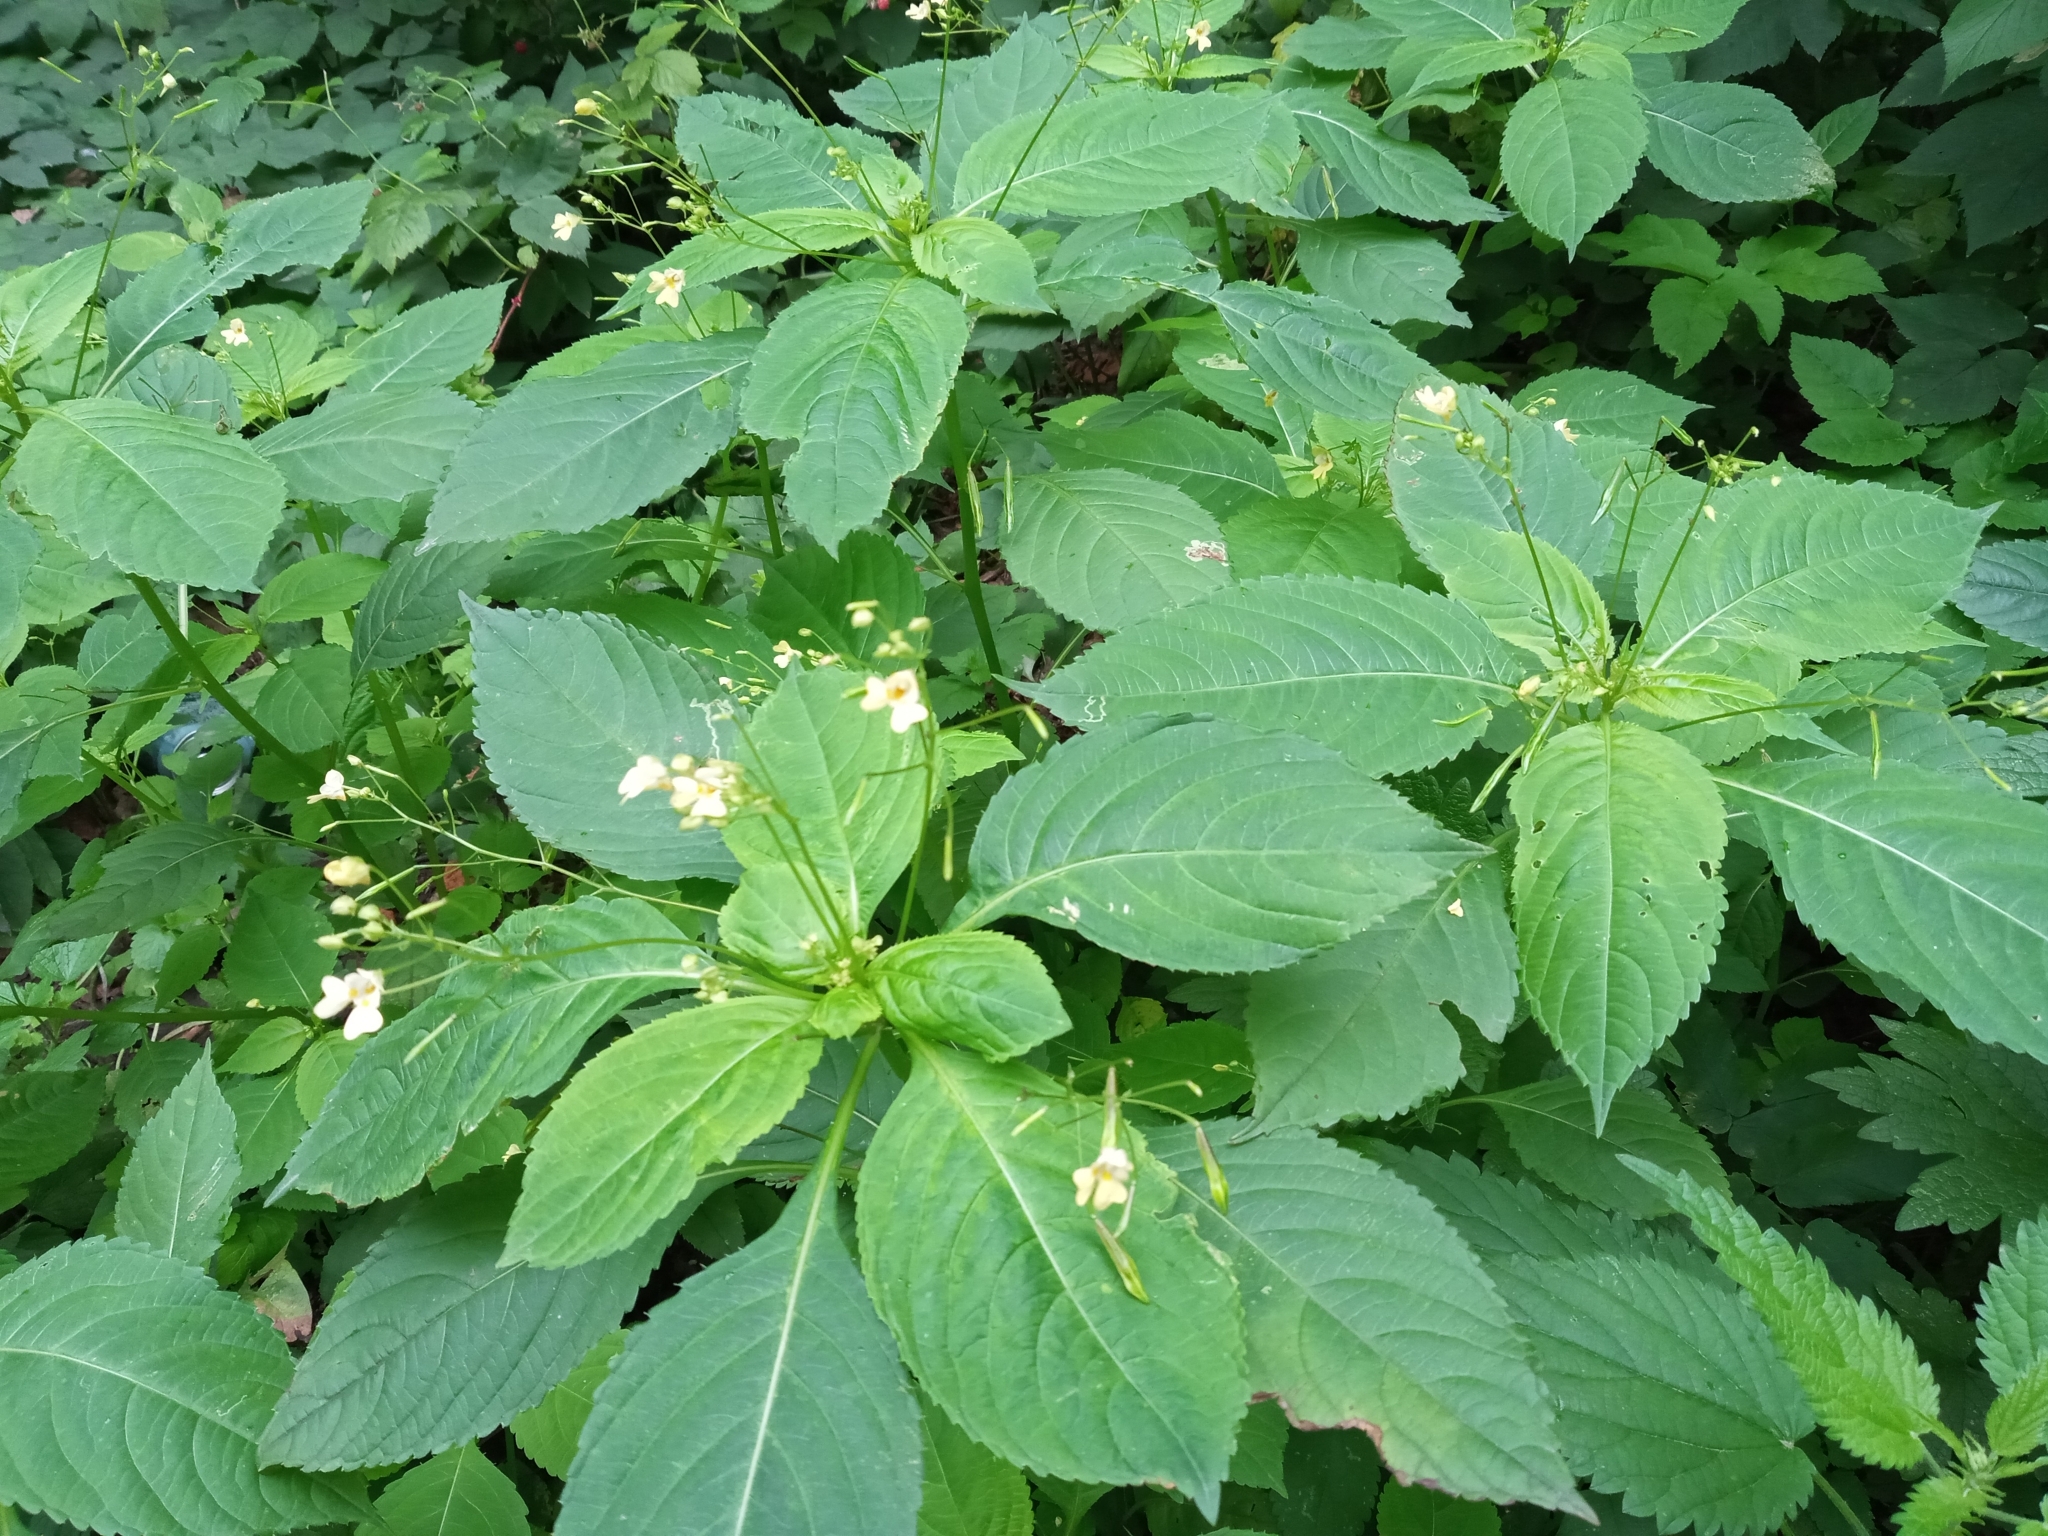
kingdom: Plantae
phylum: Tracheophyta
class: Magnoliopsida
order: Ericales
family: Balsaminaceae
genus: Impatiens
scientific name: Impatiens parviflora
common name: Small balsam
